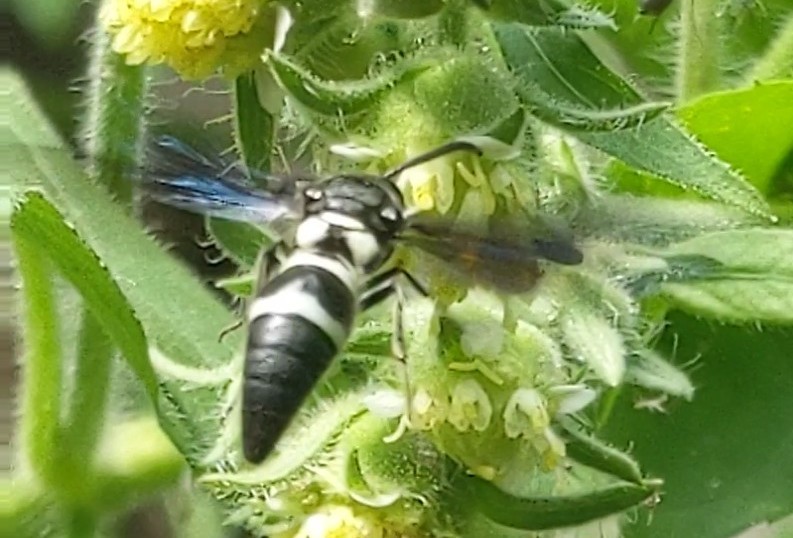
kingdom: Animalia
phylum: Arthropoda
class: Insecta
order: Hymenoptera
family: Eumenidae
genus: Pseudodynerus
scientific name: Pseudodynerus quadrisectus
